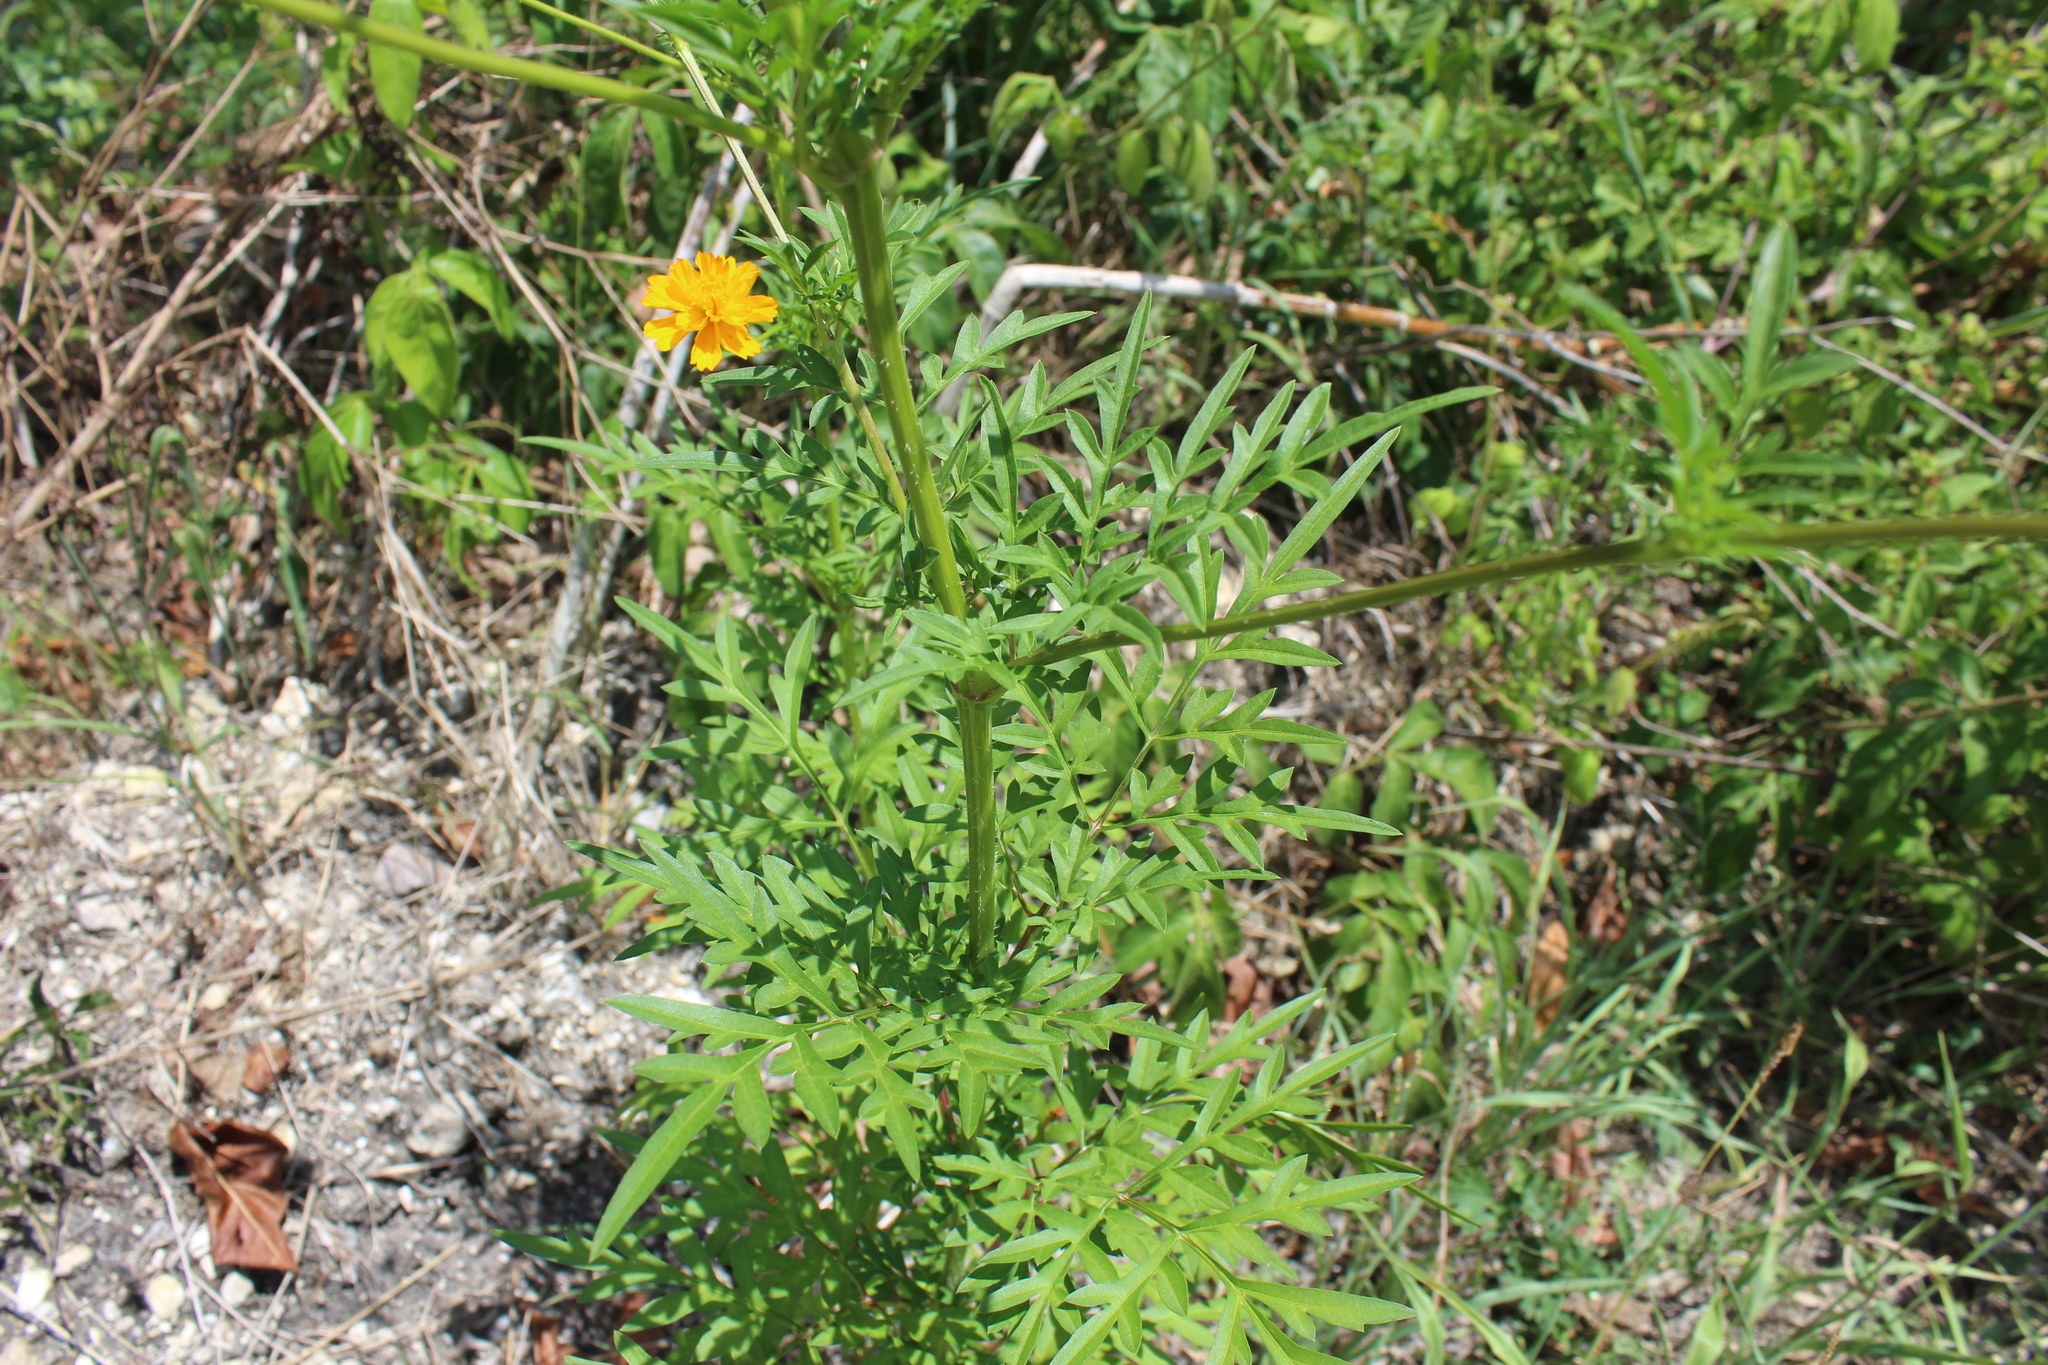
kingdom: Plantae
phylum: Tracheophyta
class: Magnoliopsida
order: Asterales
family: Asteraceae
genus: Cosmos
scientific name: Cosmos sulphureus
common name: Sulphur cosmos
